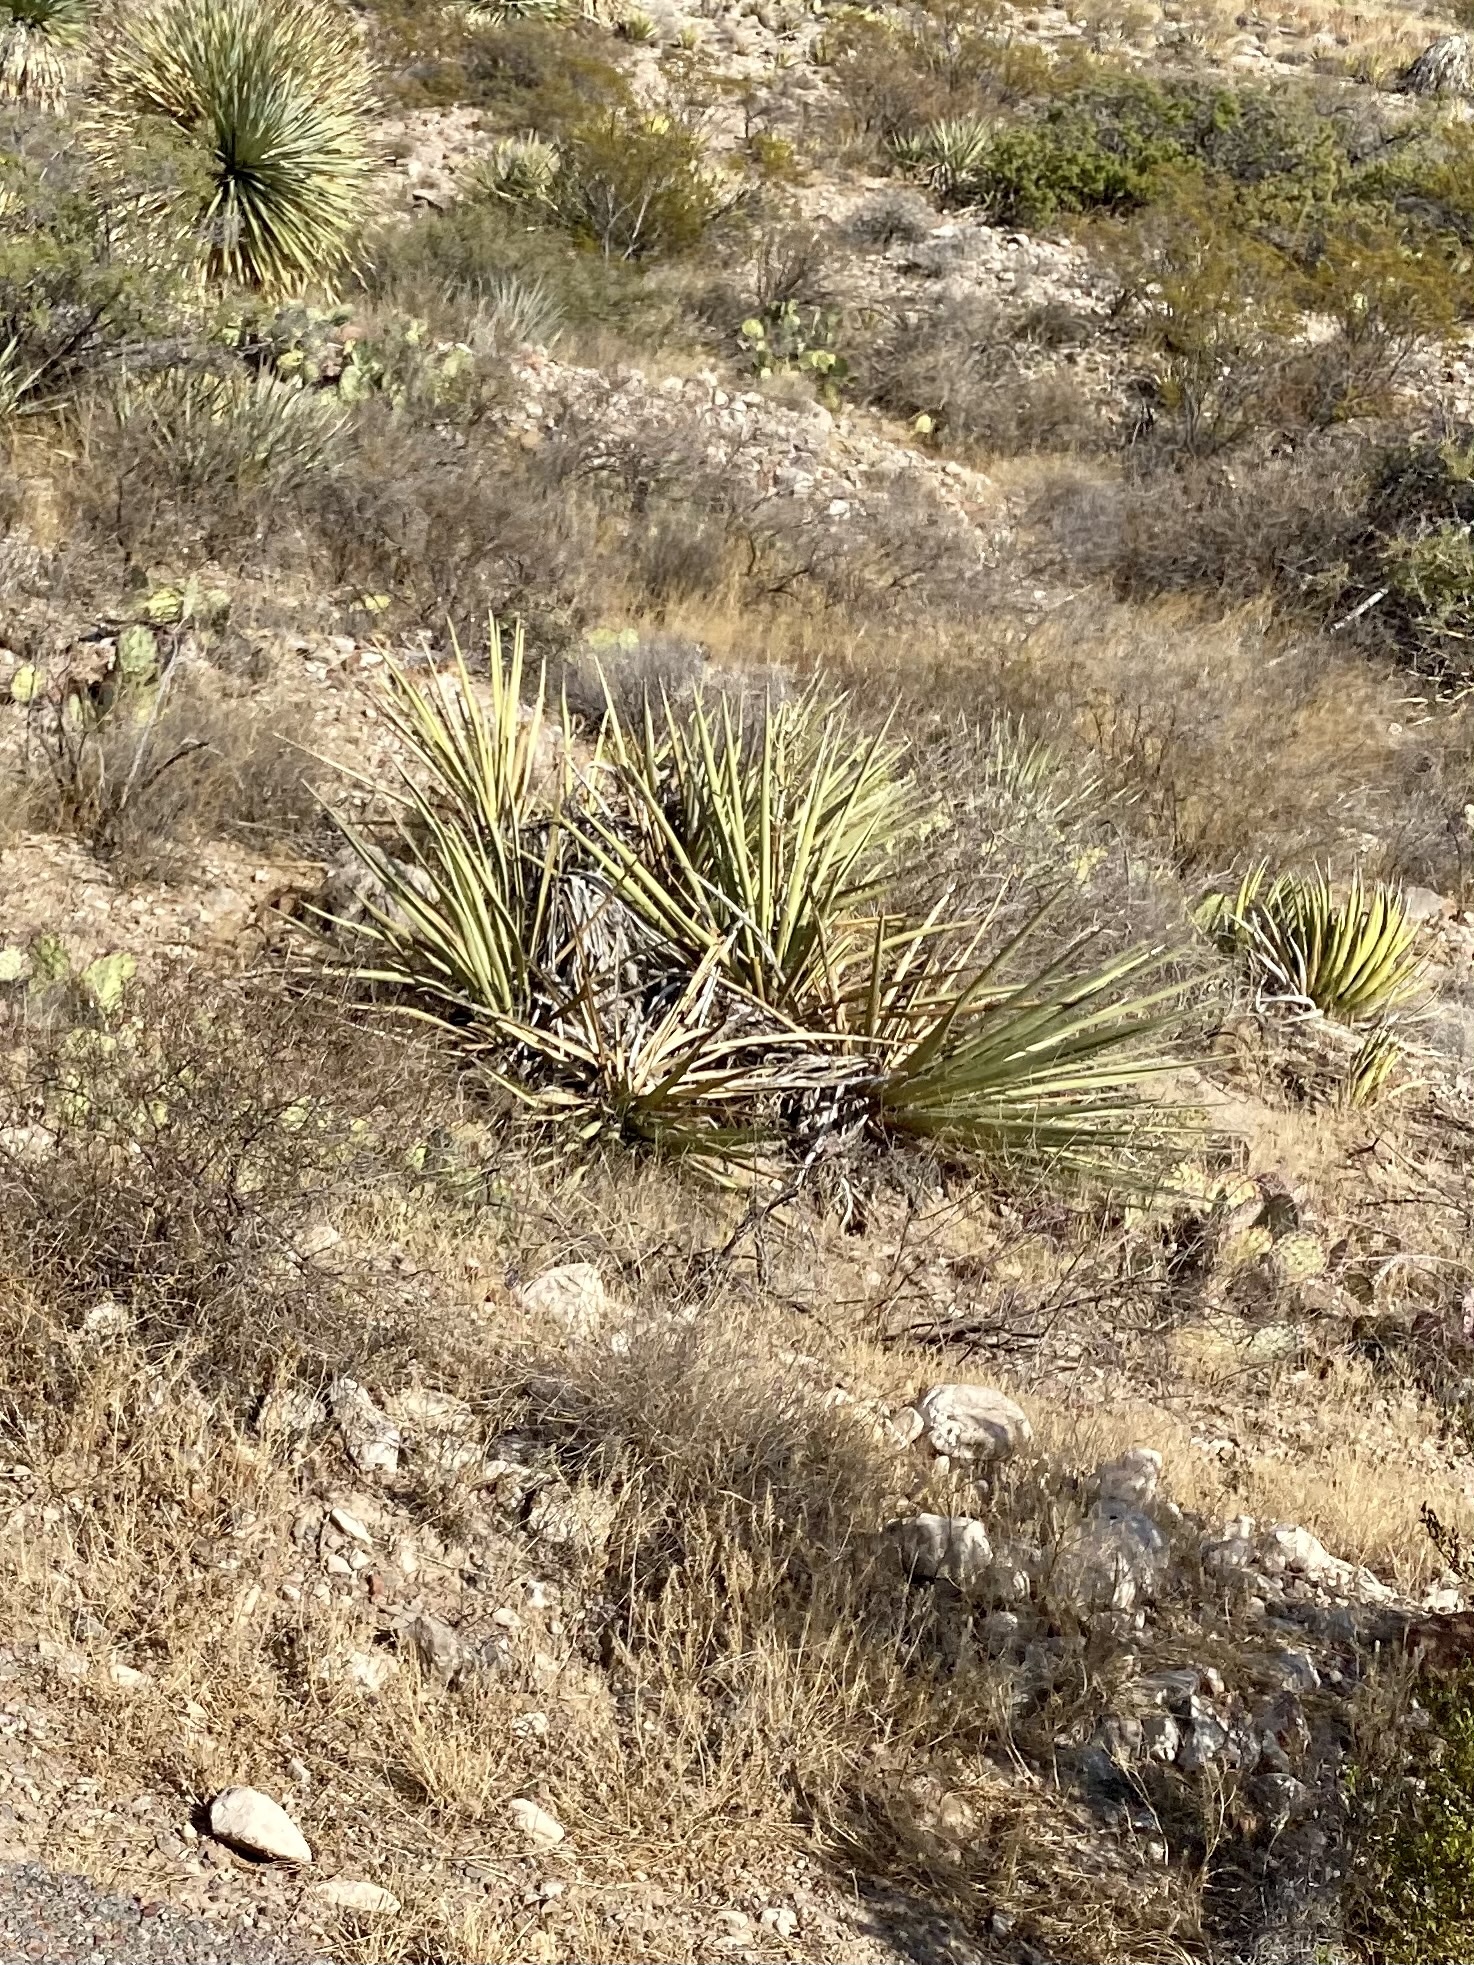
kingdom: Plantae
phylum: Tracheophyta
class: Liliopsida
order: Asparagales
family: Asparagaceae
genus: Yucca
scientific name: Yucca baccata
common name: Banana yucca
